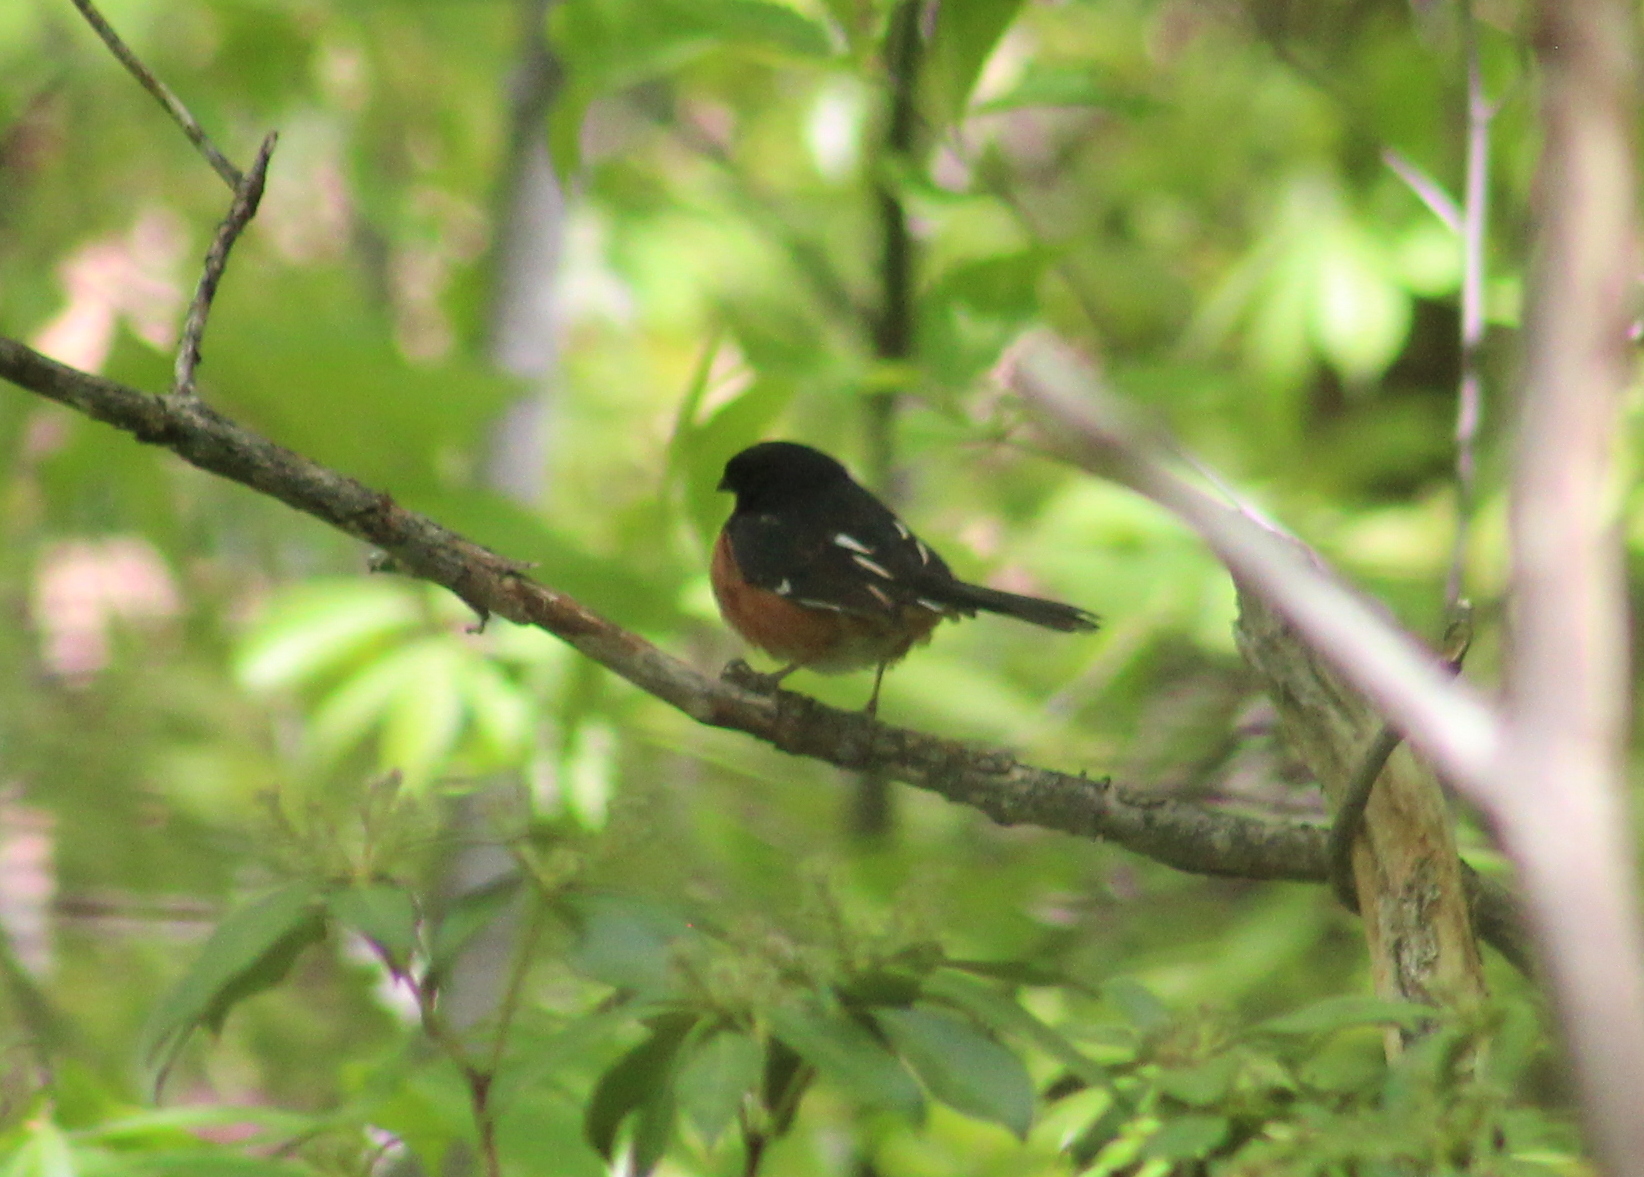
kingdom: Animalia
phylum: Chordata
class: Aves
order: Passeriformes
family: Passerellidae
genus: Pipilo
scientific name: Pipilo erythrophthalmus
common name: Eastern towhee
